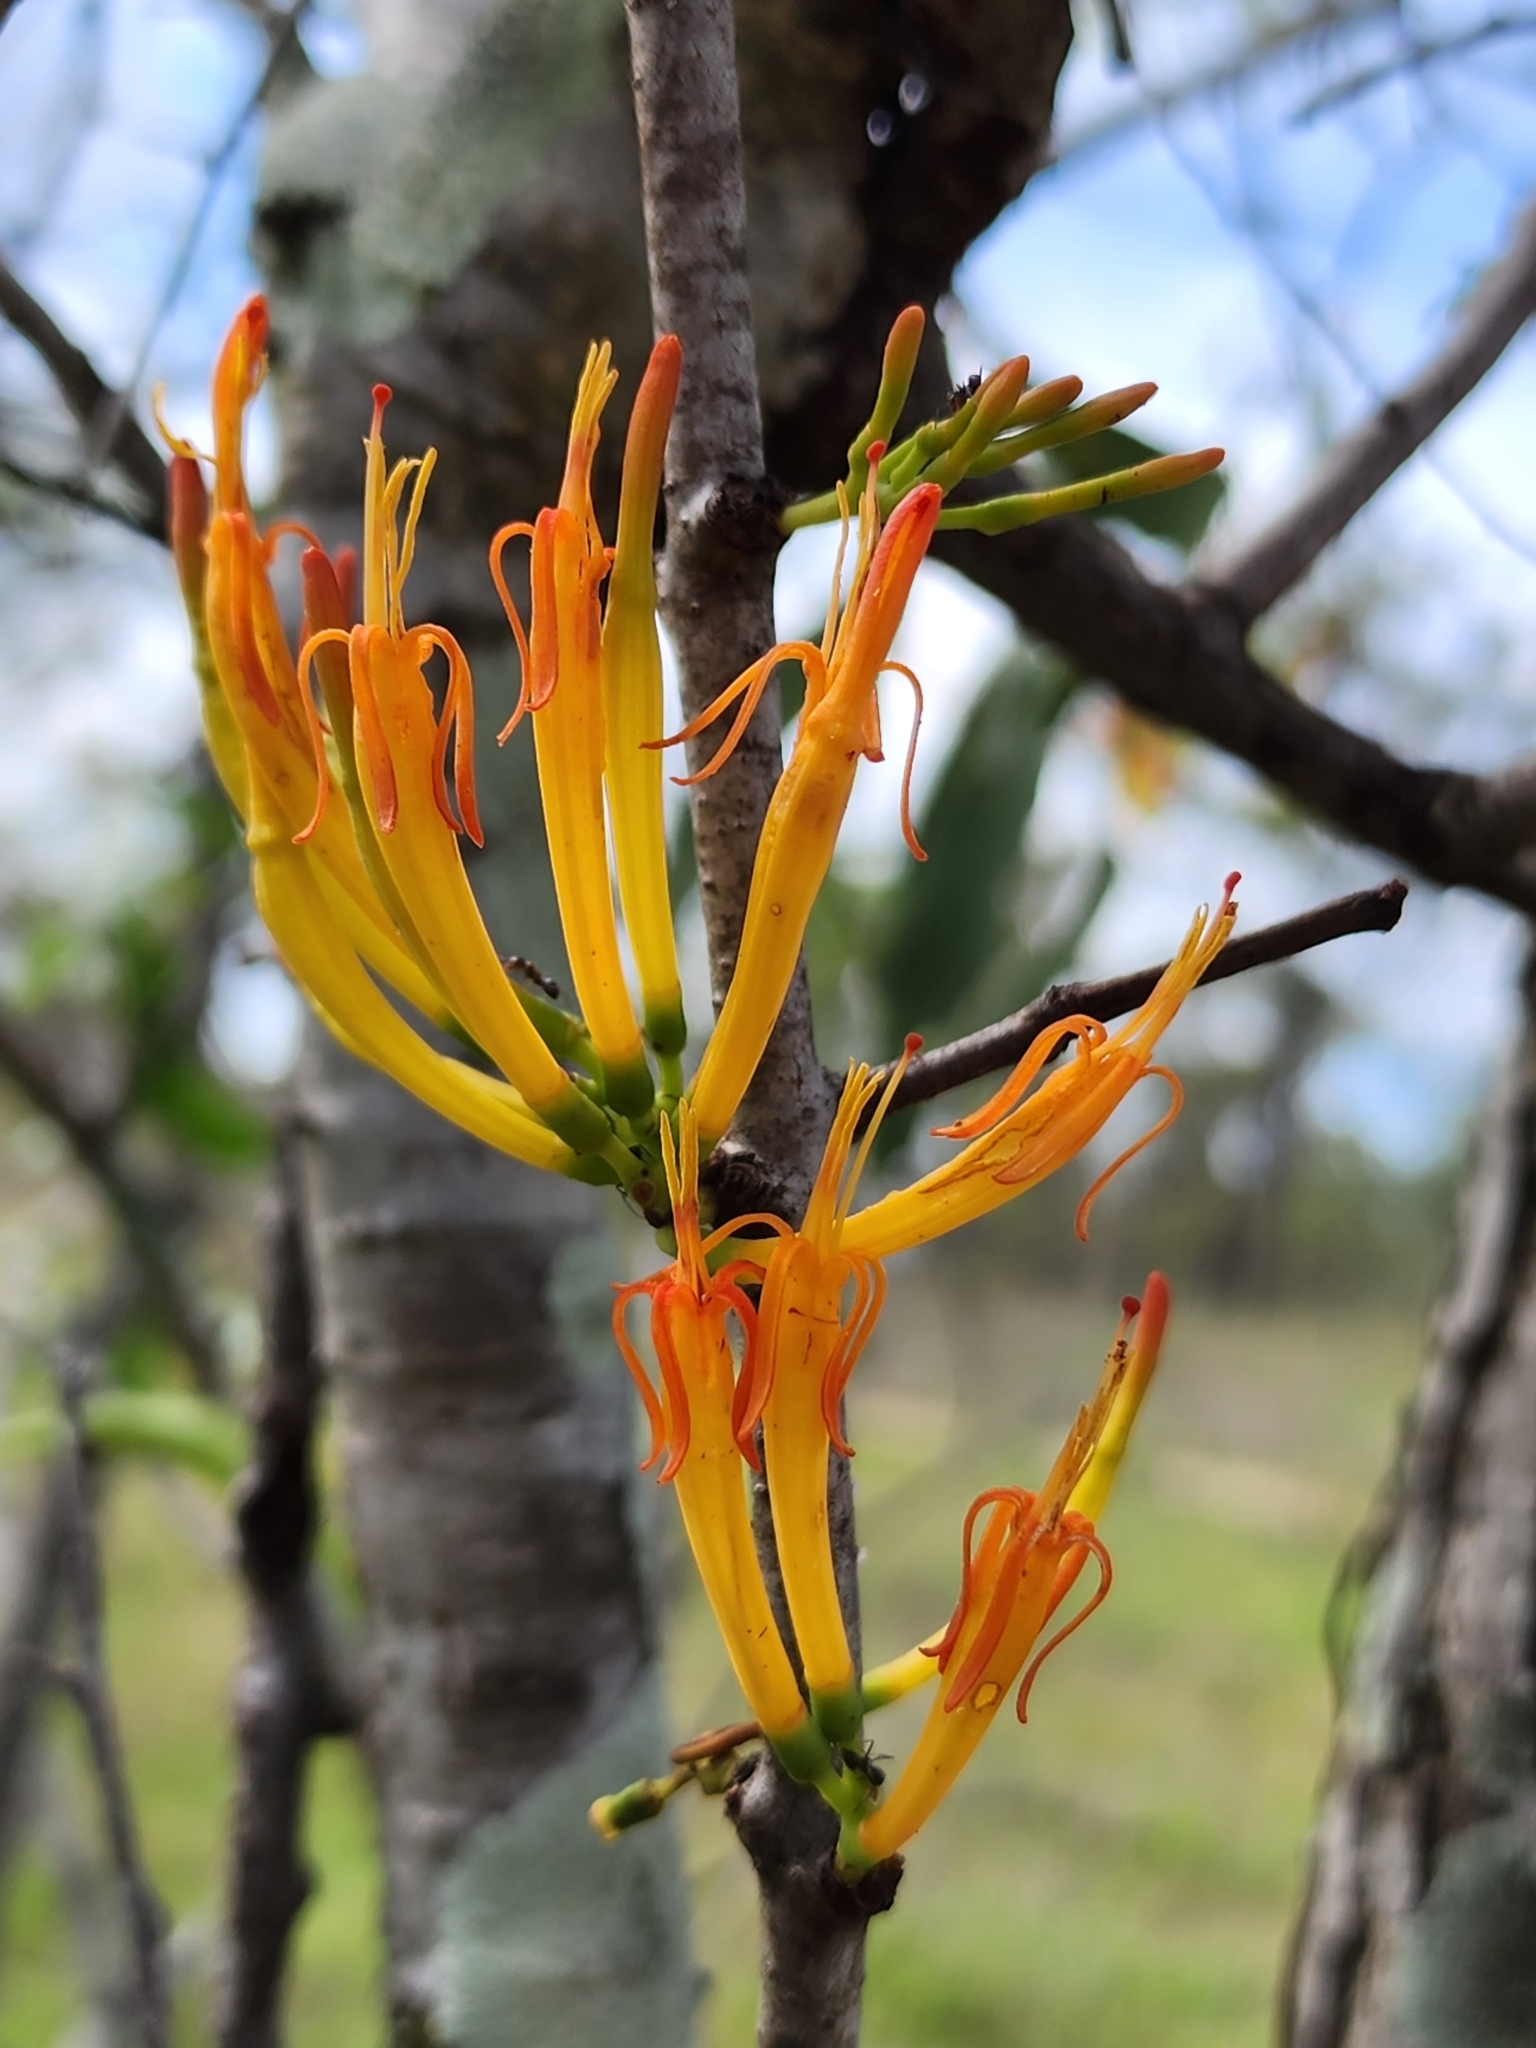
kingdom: Plantae
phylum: Tracheophyta
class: Magnoliopsida
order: Santalales
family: Loranthaceae
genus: Dendrophthoe
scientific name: Dendrophthoe glabrescens
